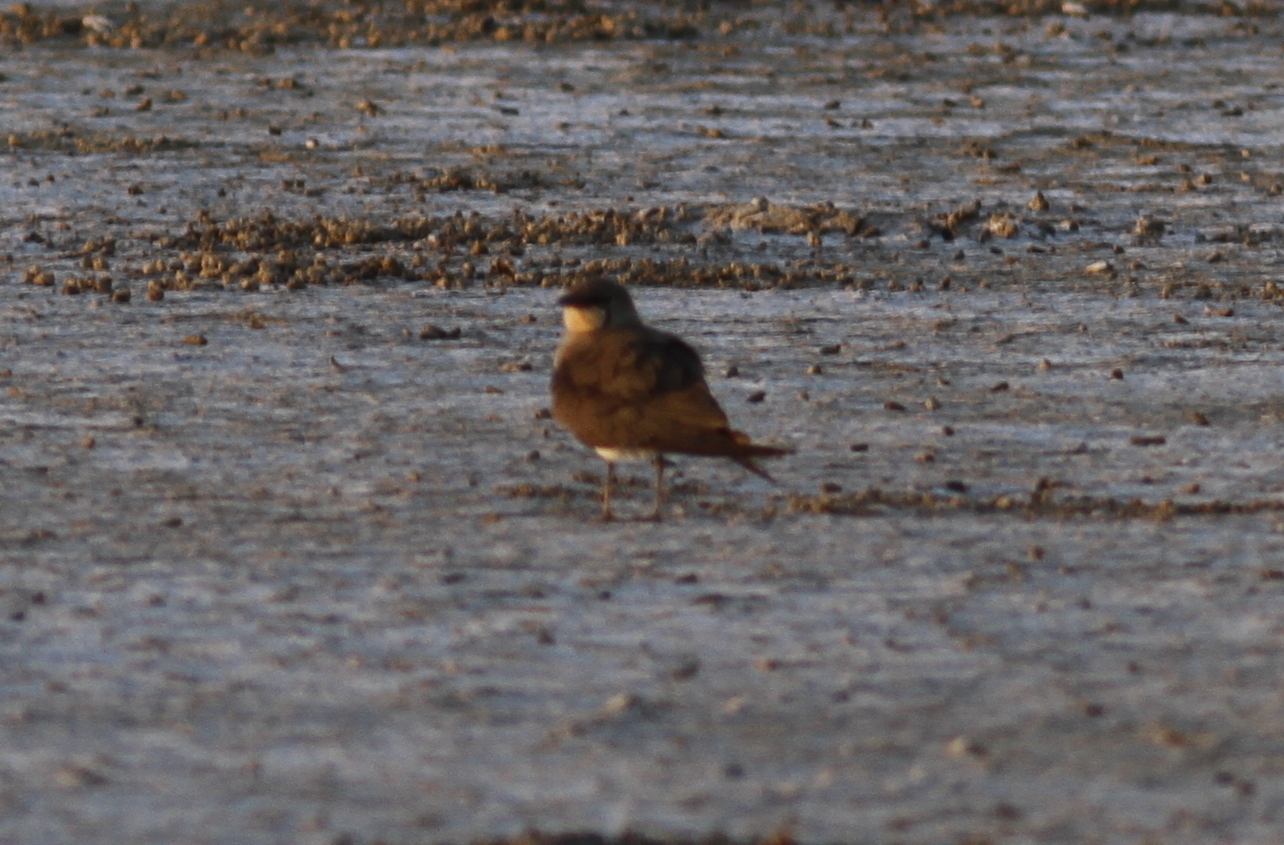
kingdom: Animalia
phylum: Chordata
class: Aves
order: Charadriiformes
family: Glareolidae
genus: Glareola
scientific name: Glareola pratincola
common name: Collared pratincole
